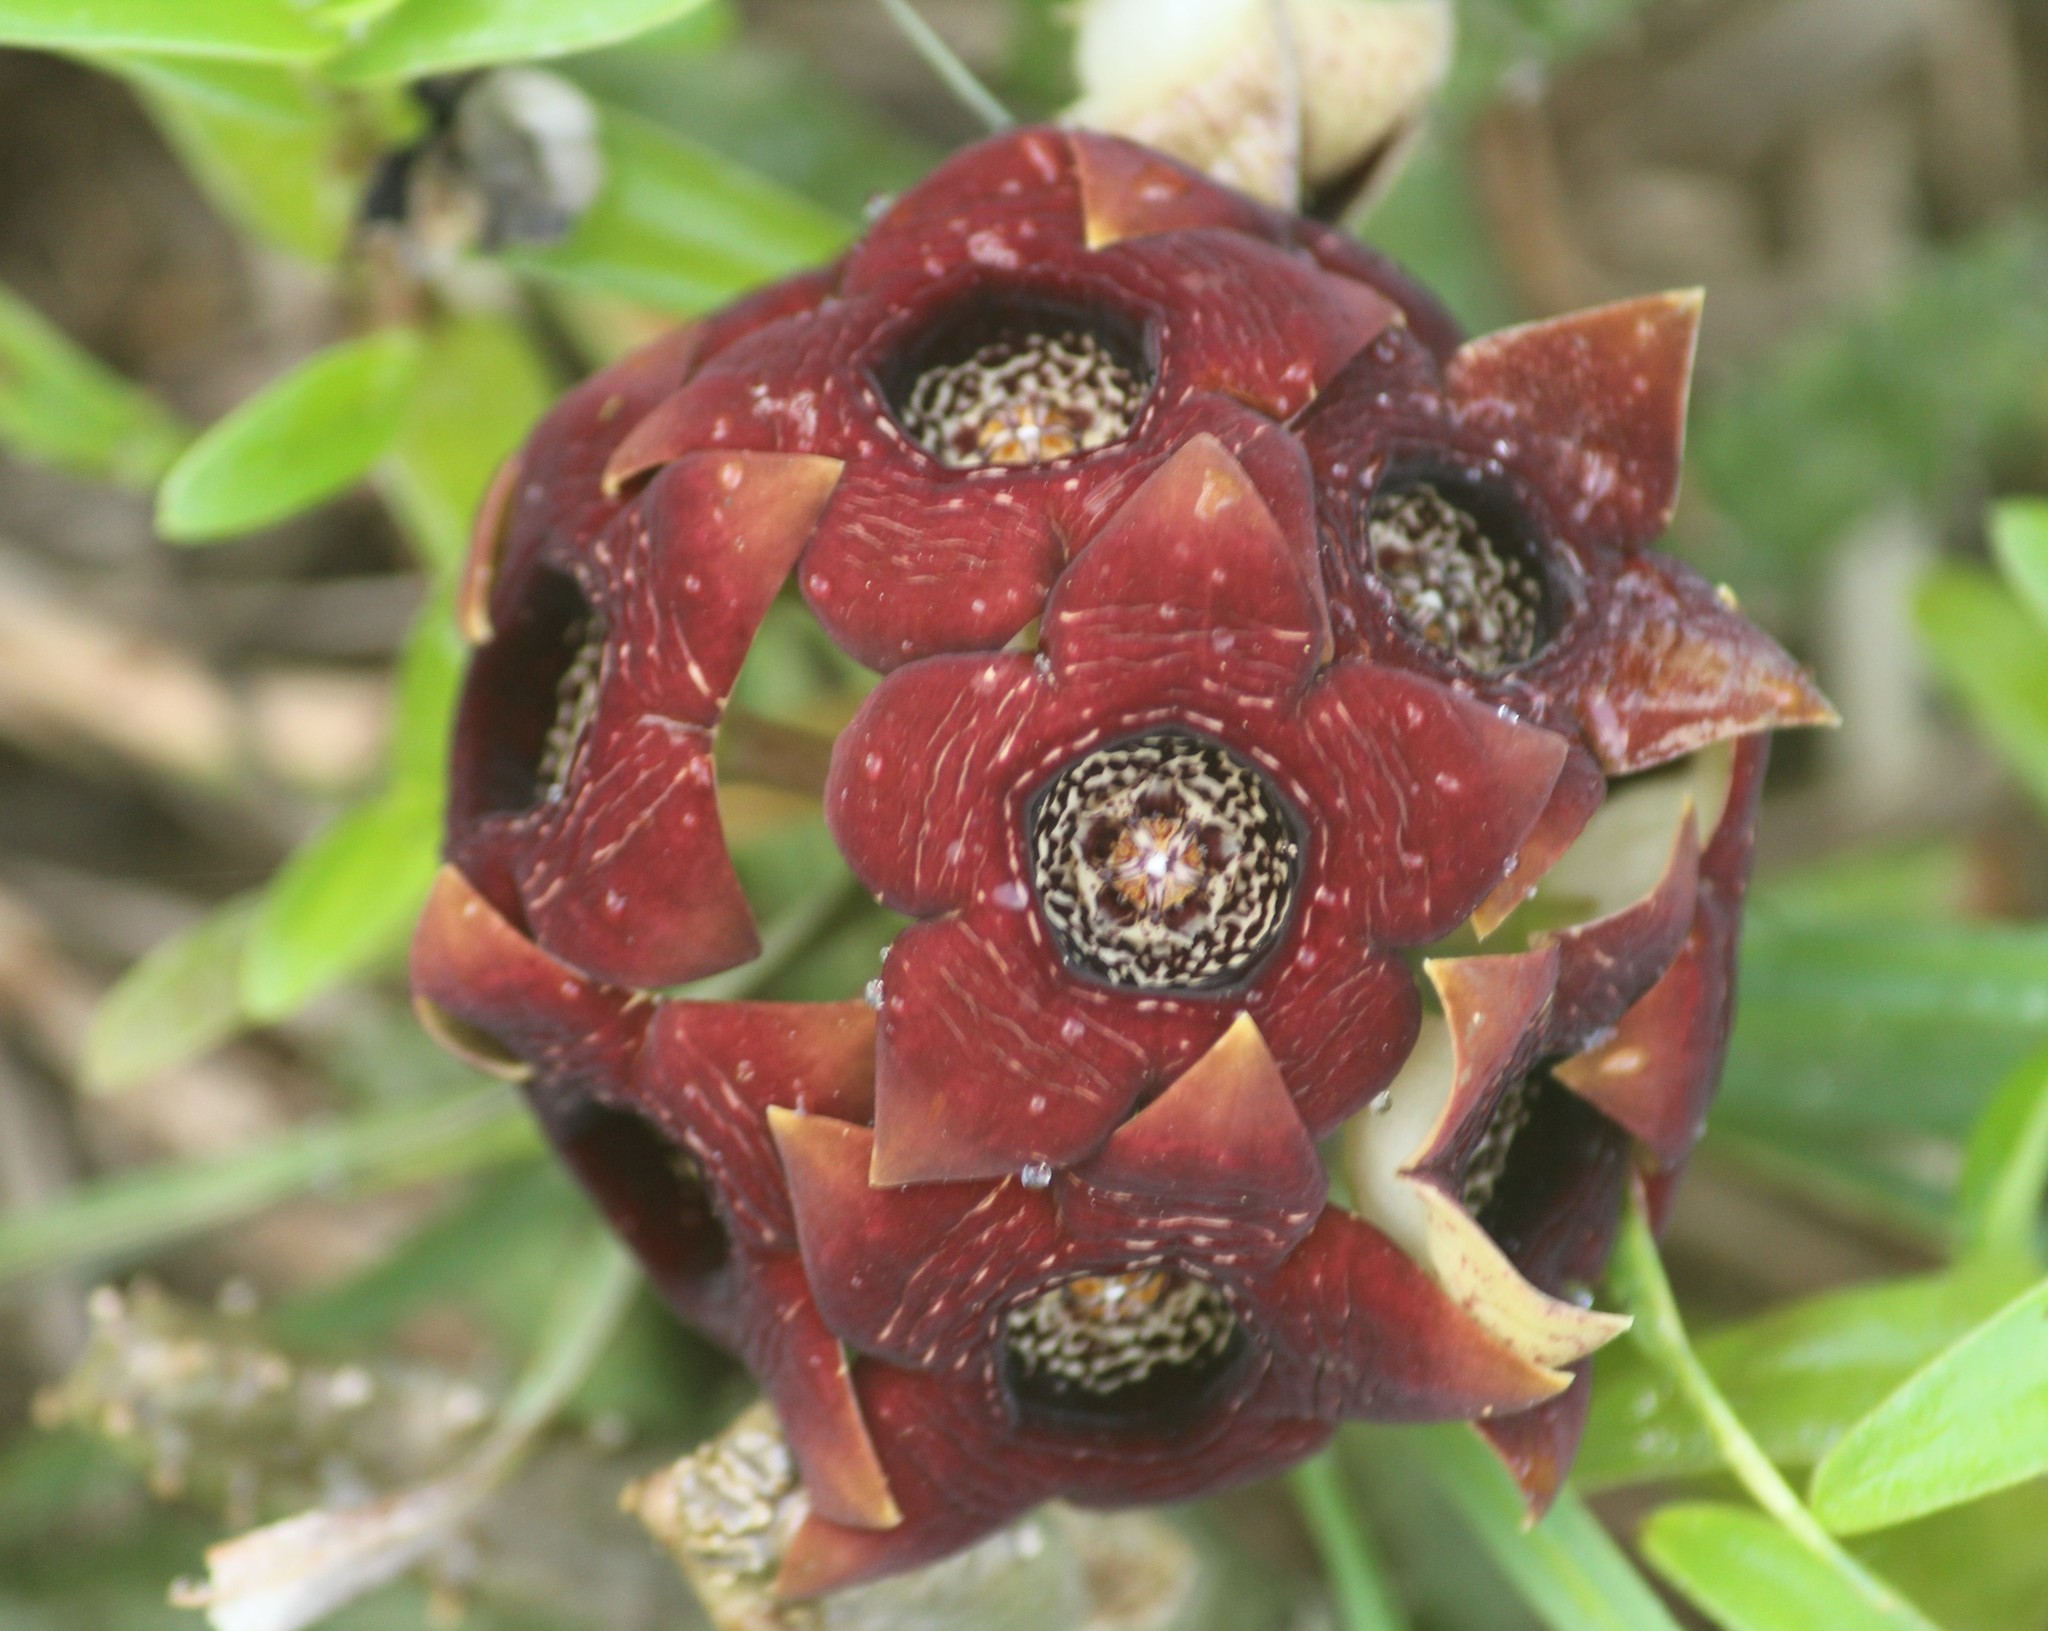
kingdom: Plantae
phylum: Tracheophyta
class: Magnoliopsida
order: Gentianales
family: Apocynaceae
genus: Ceropegia
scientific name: Ceropegia crenulata
